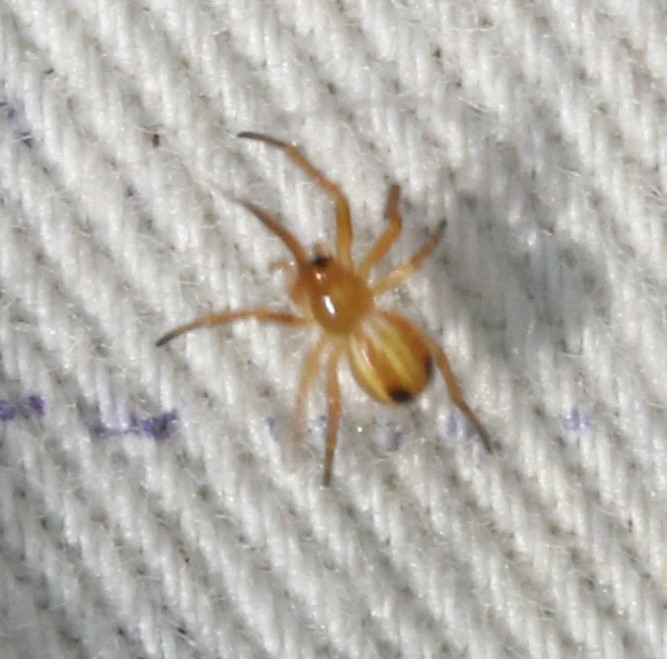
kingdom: Animalia
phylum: Arthropoda
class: Arachnida
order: Araneae
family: Araneidae
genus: Araneus
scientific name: Araneus pratensis
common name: Openfield orbweaver
